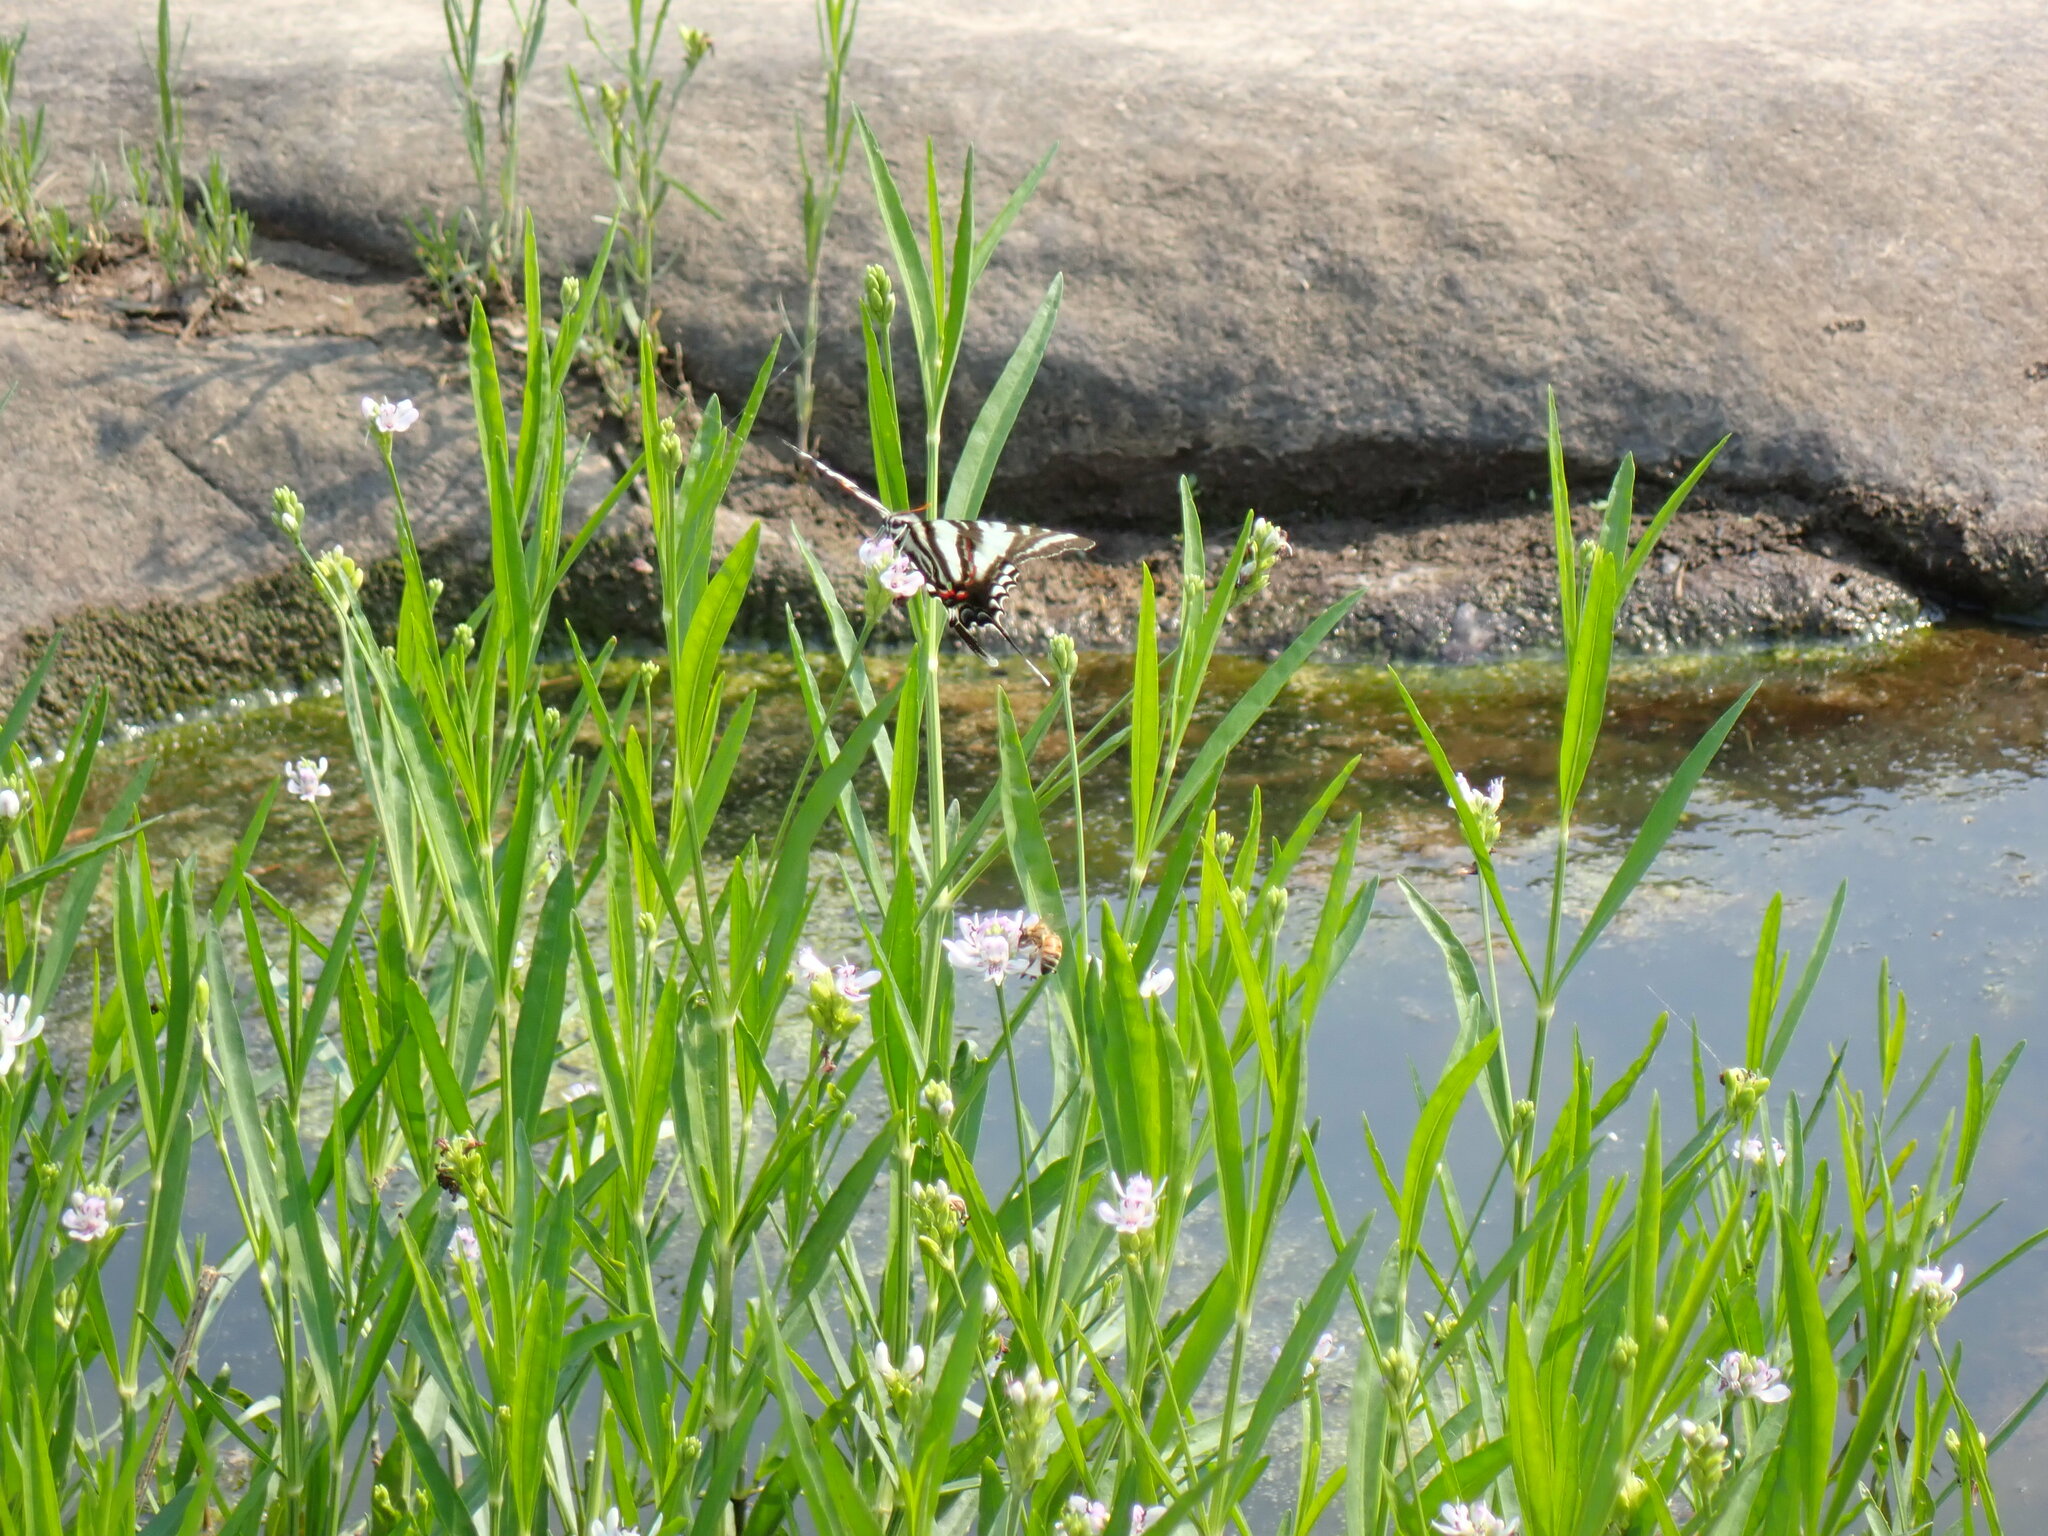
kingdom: Animalia
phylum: Arthropoda
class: Insecta
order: Lepidoptera
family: Papilionidae
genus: Protographium
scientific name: Protographium marcellus
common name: Zebra swallowtail
